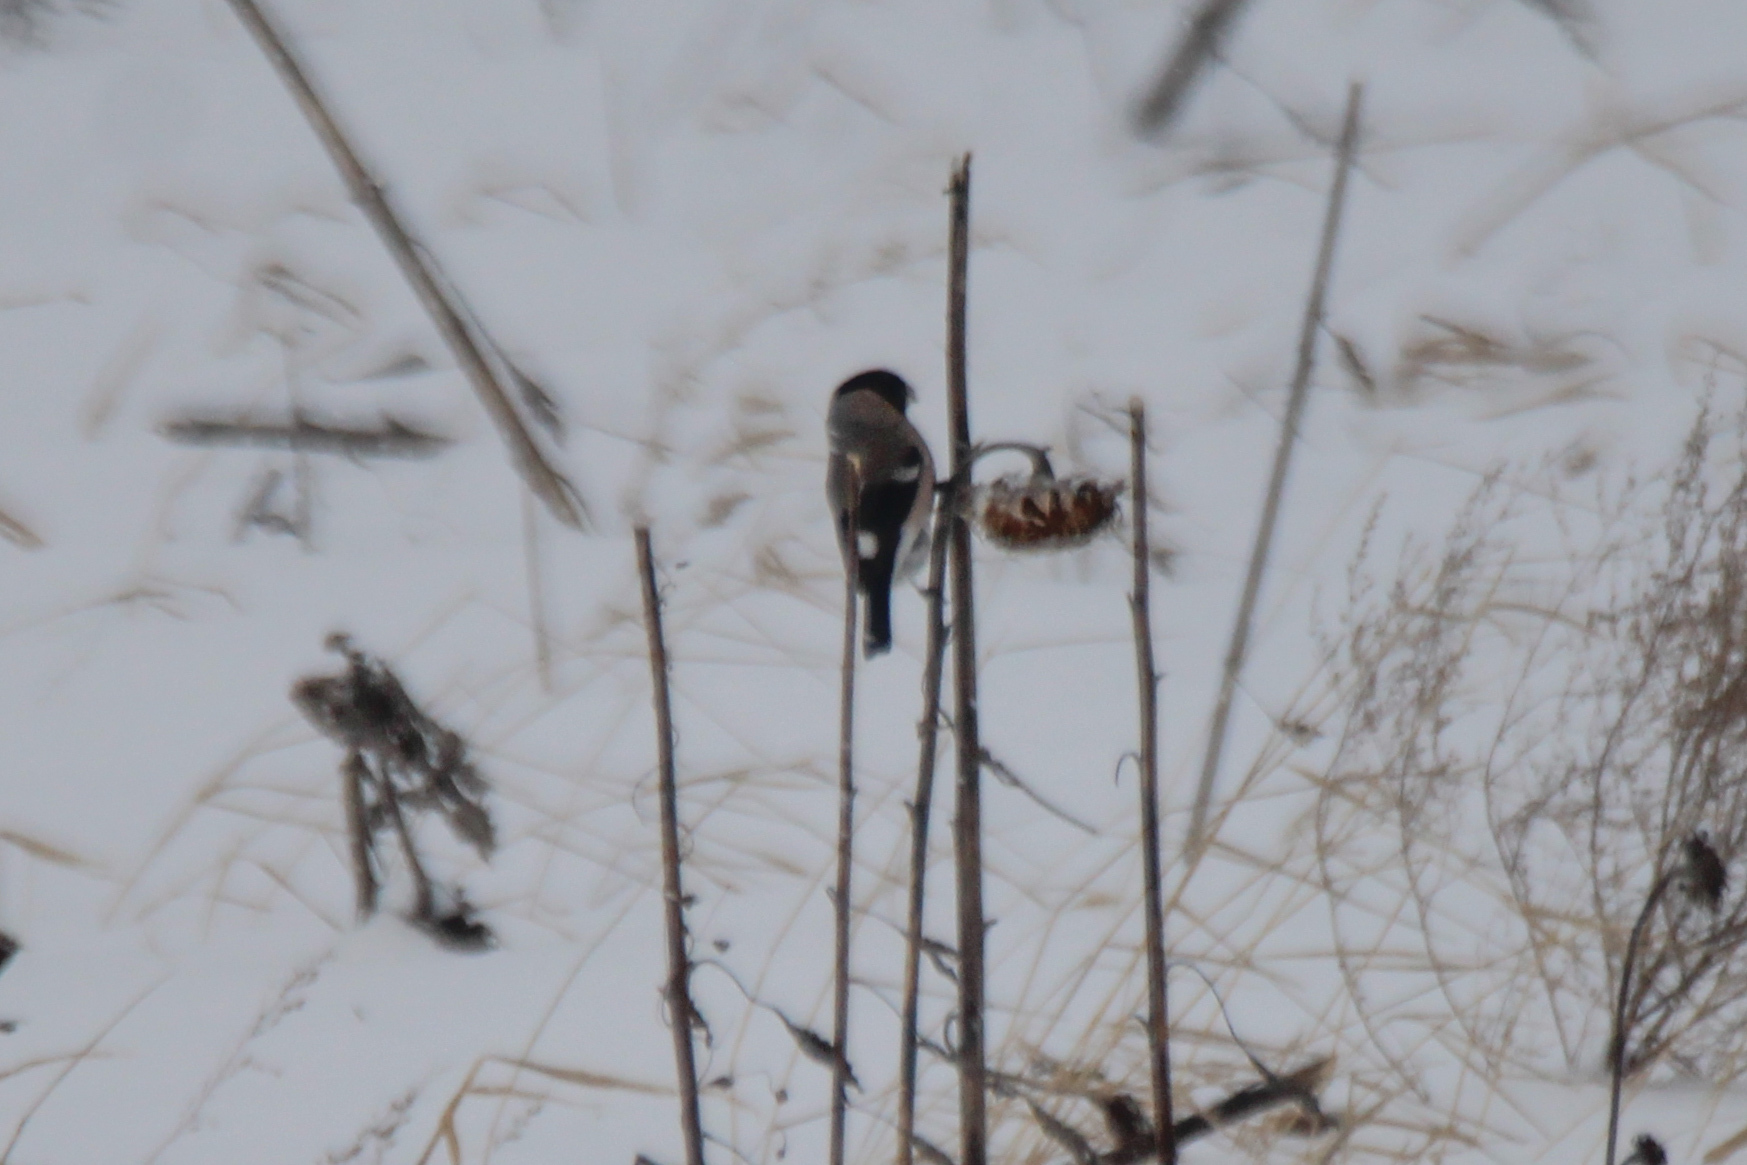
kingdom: Animalia
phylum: Chordata
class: Aves
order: Passeriformes
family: Fringillidae
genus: Pyrrhula
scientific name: Pyrrhula pyrrhula
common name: Eurasian bullfinch
